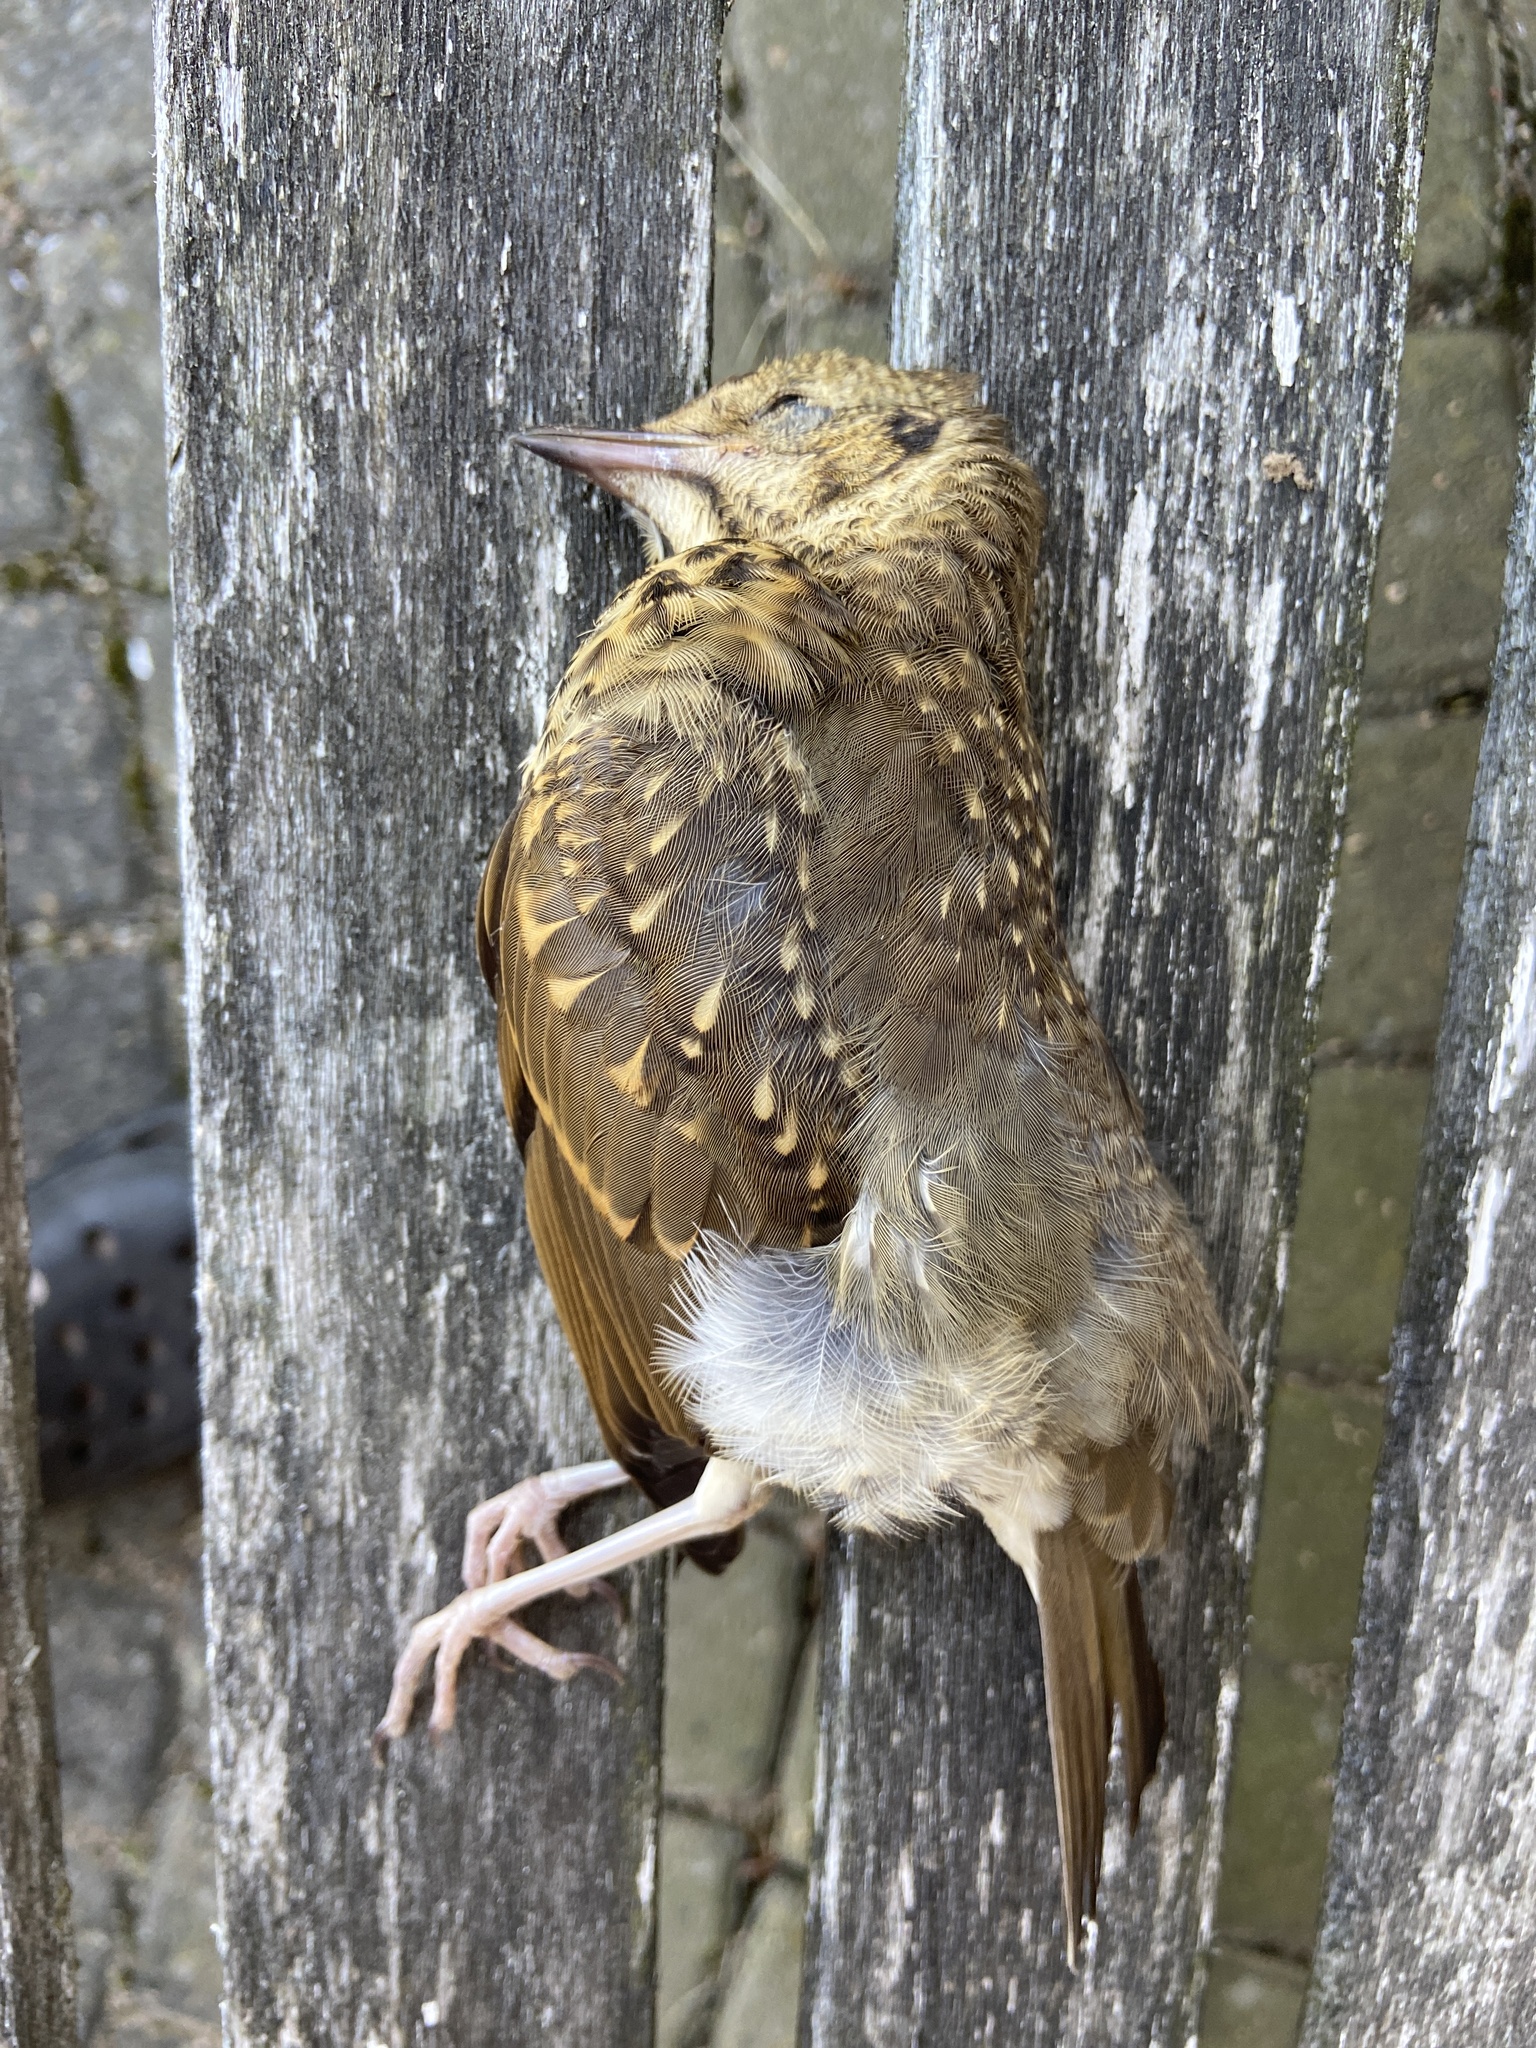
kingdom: Animalia
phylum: Chordata
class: Aves
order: Passeriformes
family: Turdidae
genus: Turdus
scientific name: Turdus philomelos
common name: Song thrush
